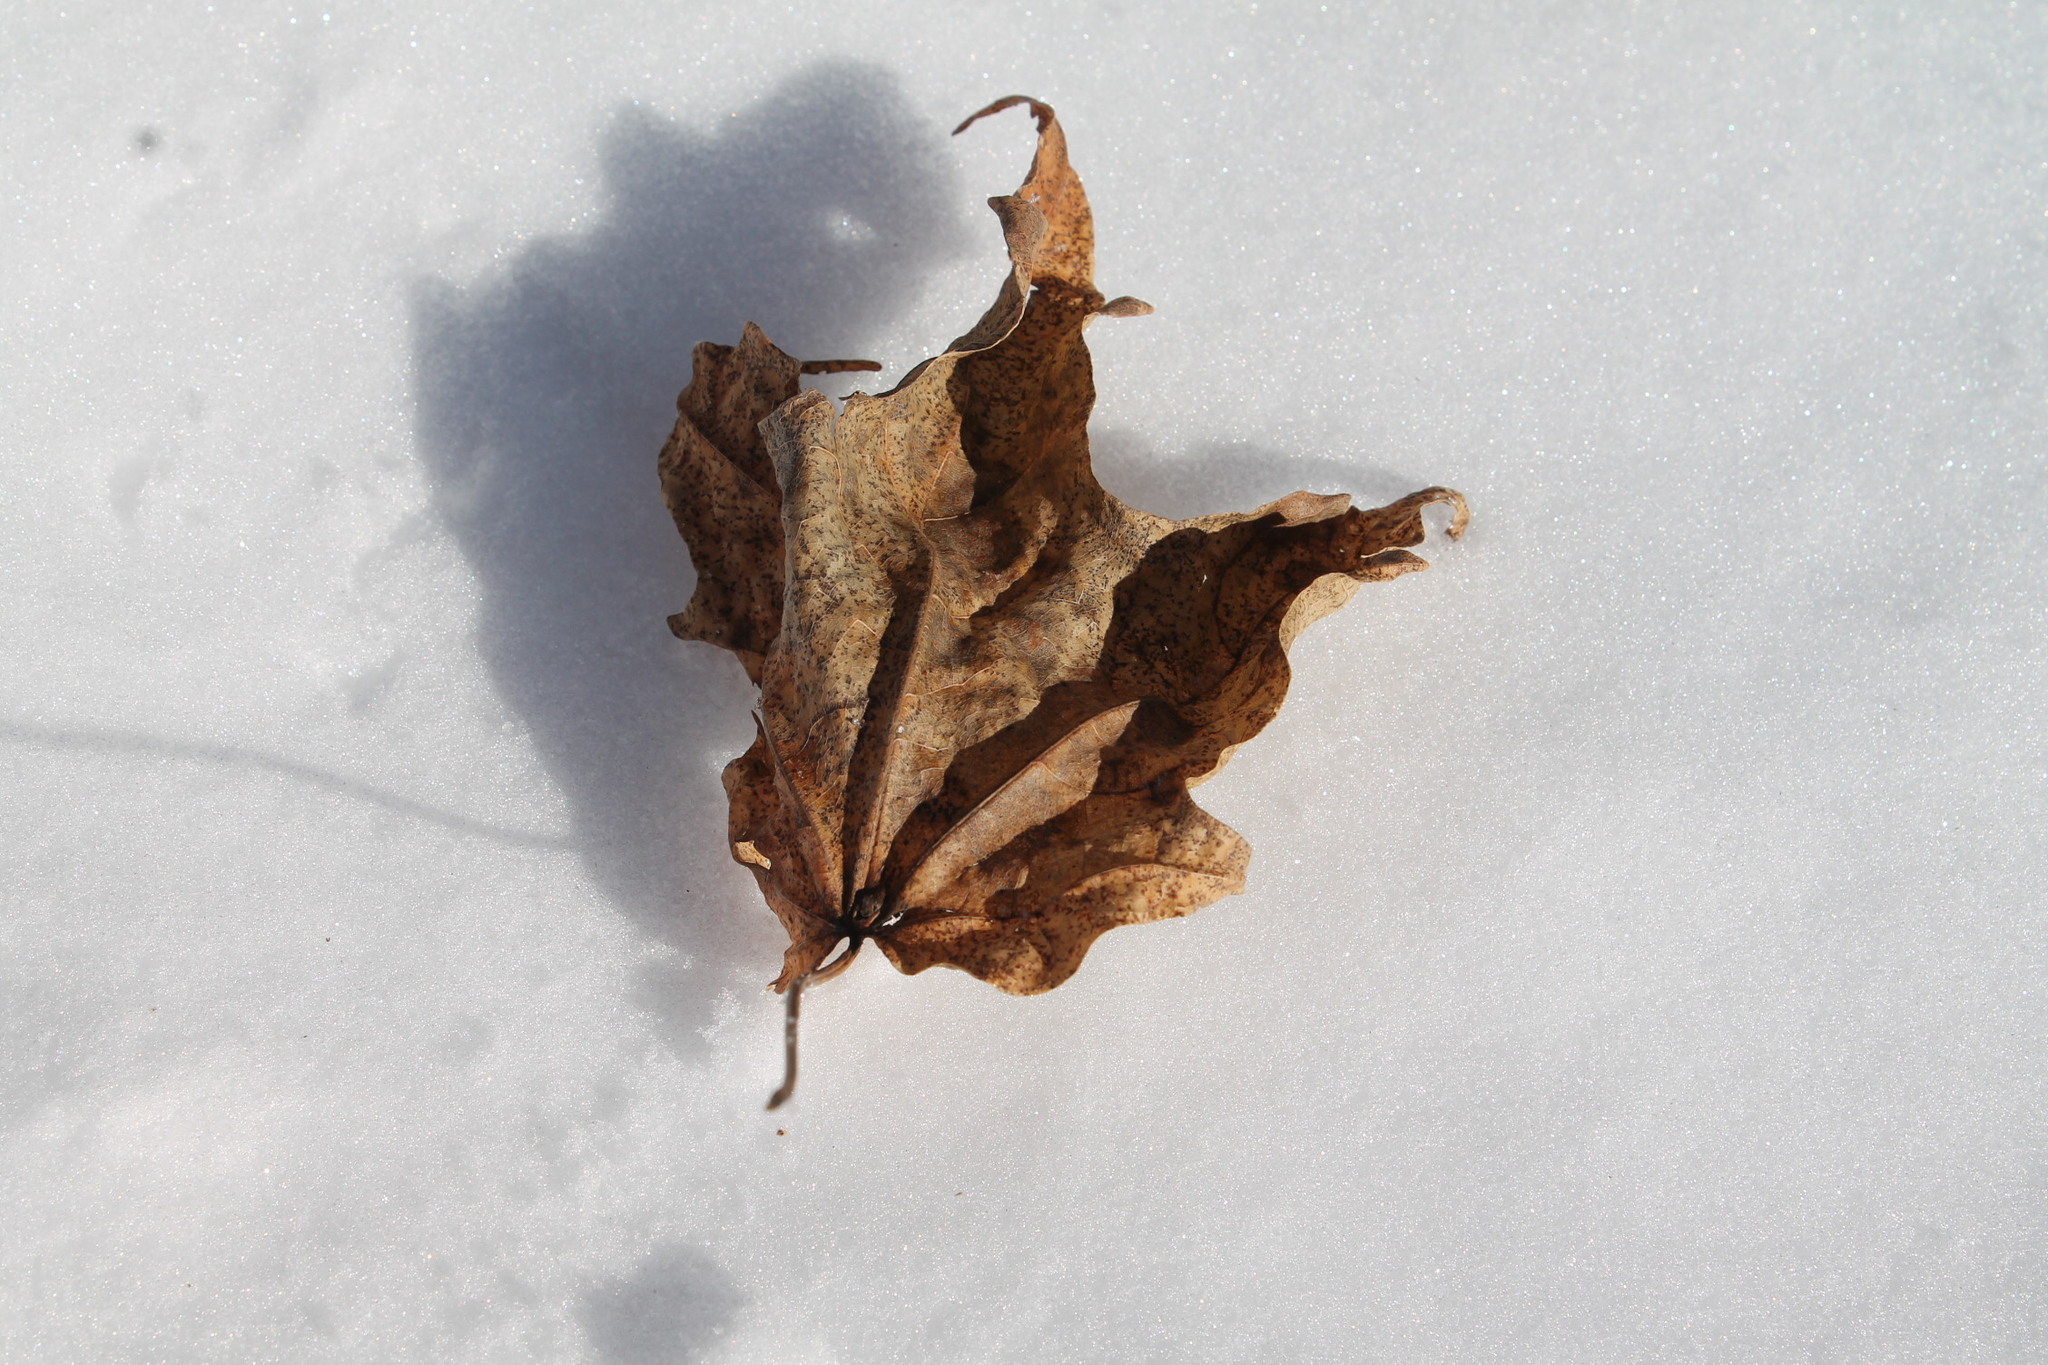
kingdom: Plantae
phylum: Tracheophyta
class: Magnoliopsida
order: Sapindales
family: Sapindaceae
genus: Acer
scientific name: Acer saccharum
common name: Sugar maple
